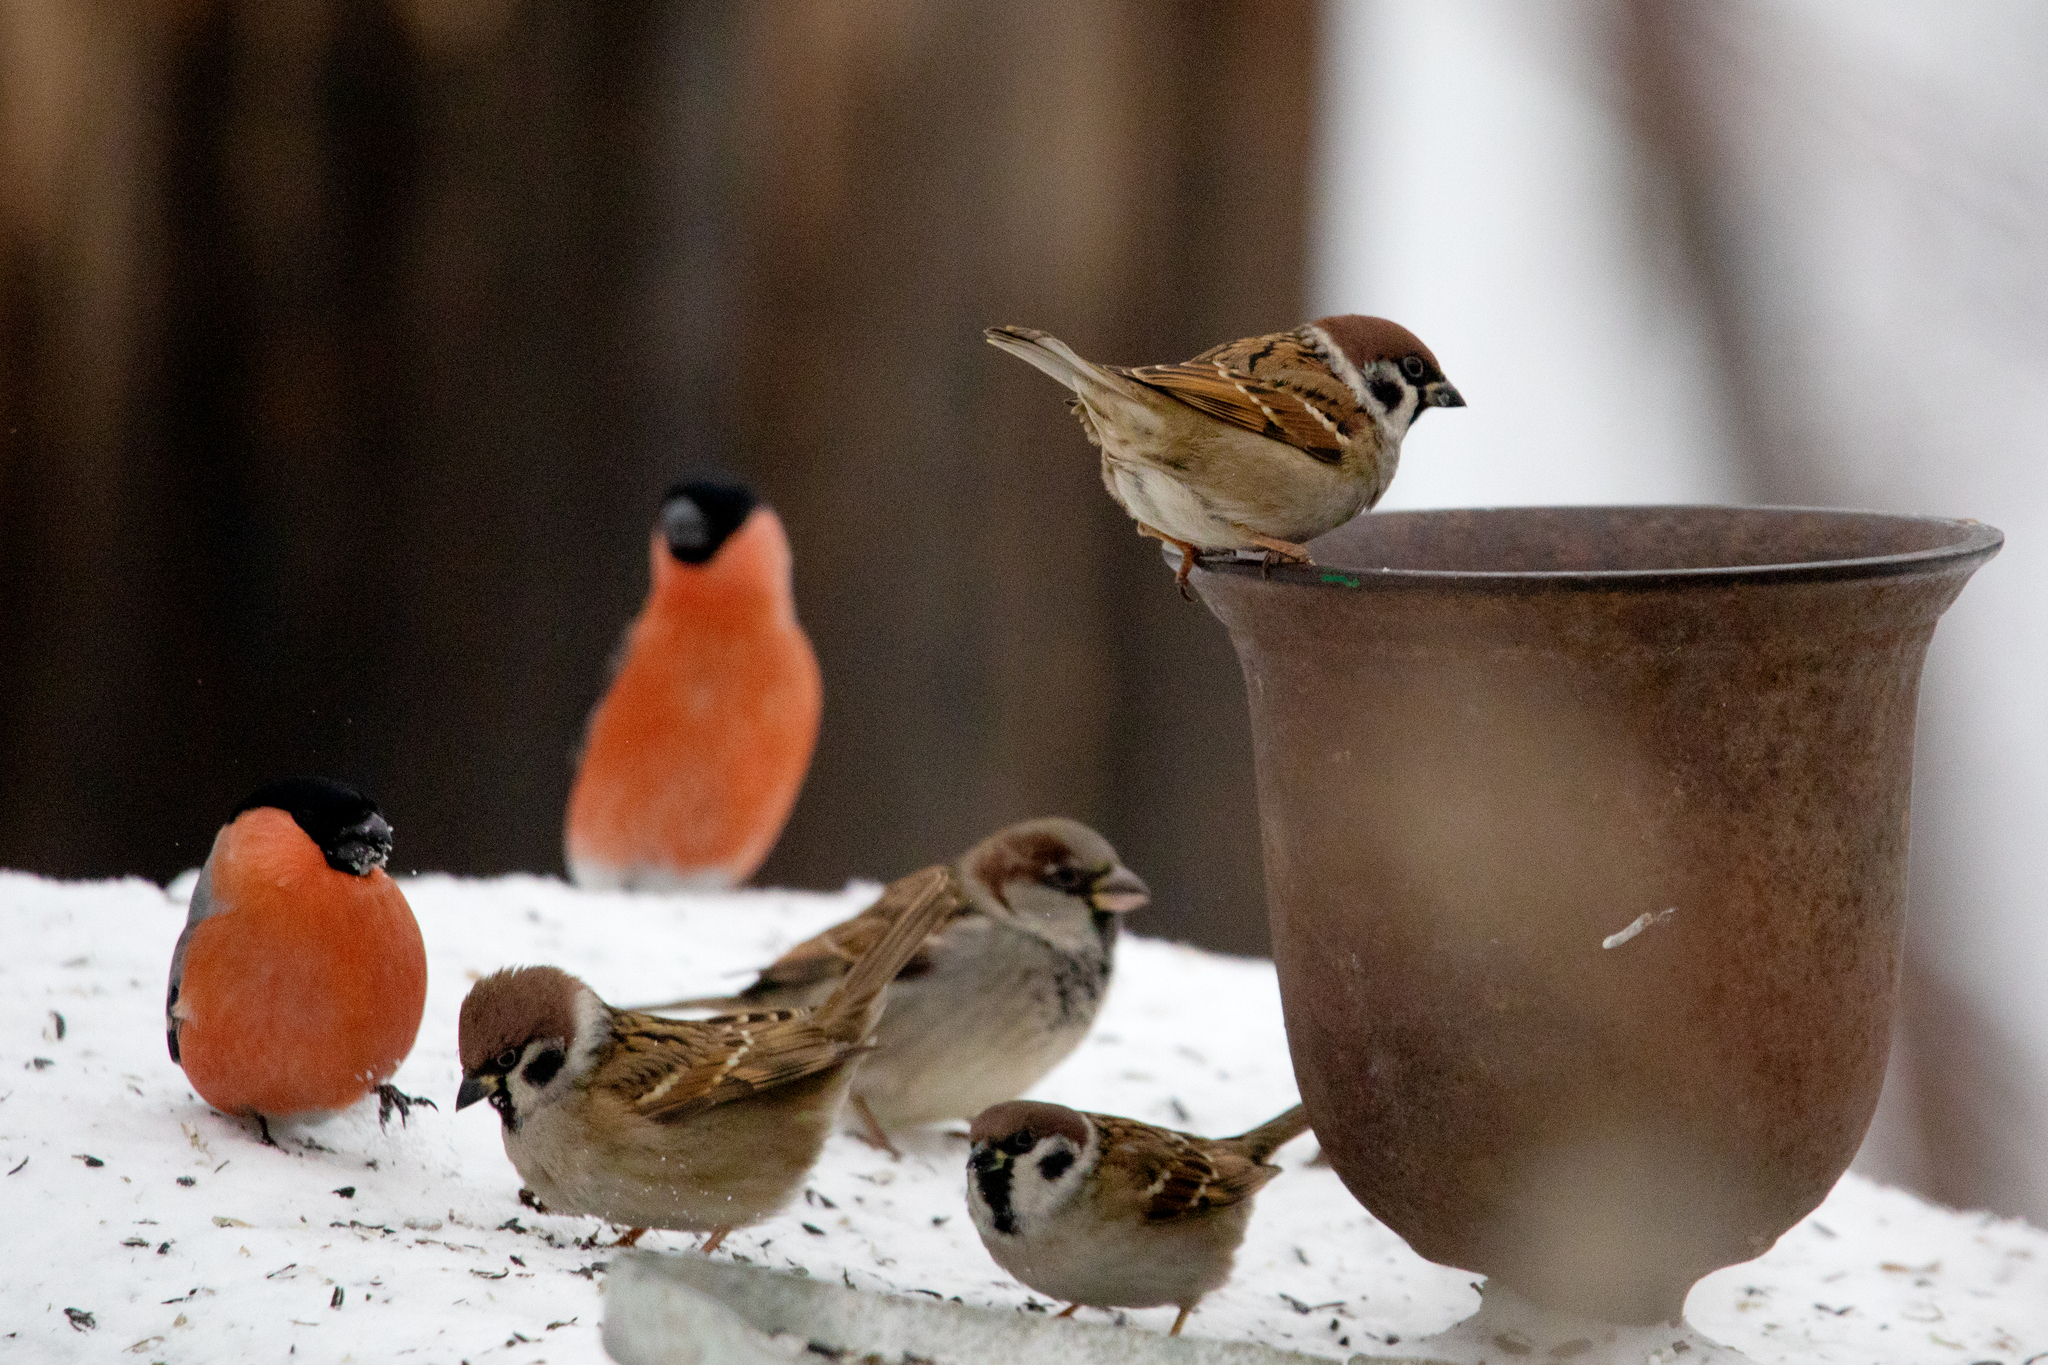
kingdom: Animalia
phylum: Chordata
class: Aves
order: Passeriformes
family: Passeridae
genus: Passer
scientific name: Passer montanus
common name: Eurasian tree sparrow
